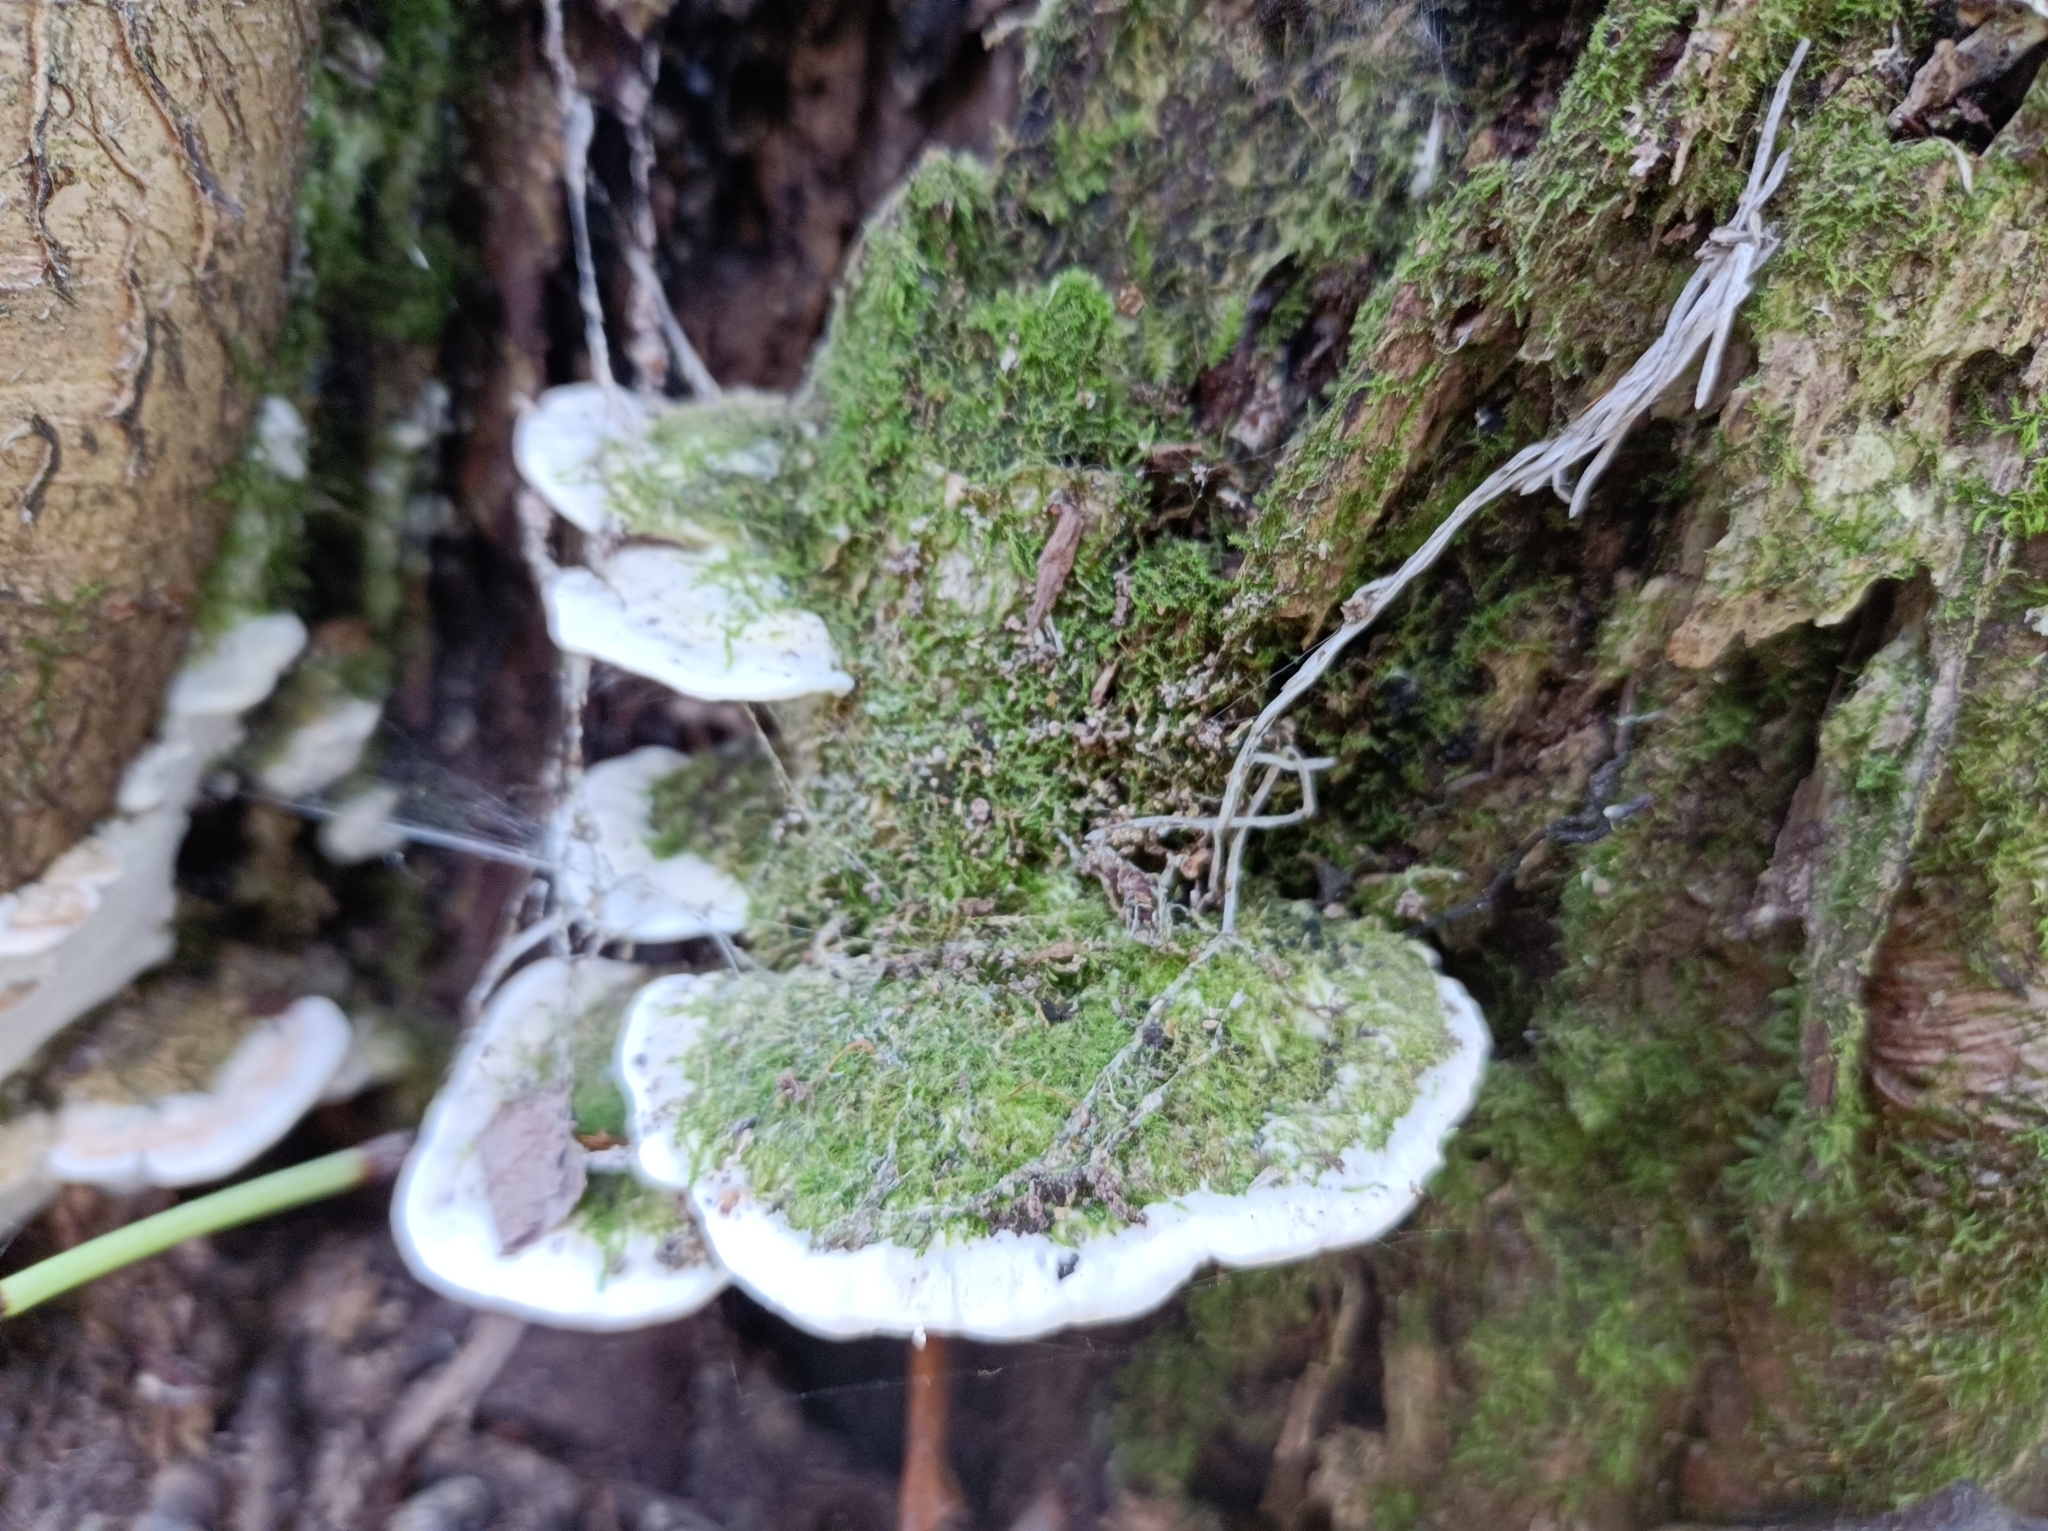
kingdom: Fungi
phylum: Basidiomycota
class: Agaricomycetes
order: Hymenochaetales
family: Oxyporaceae
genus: Oxyporus
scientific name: Oxyporus populinus
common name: Poplar bracket
